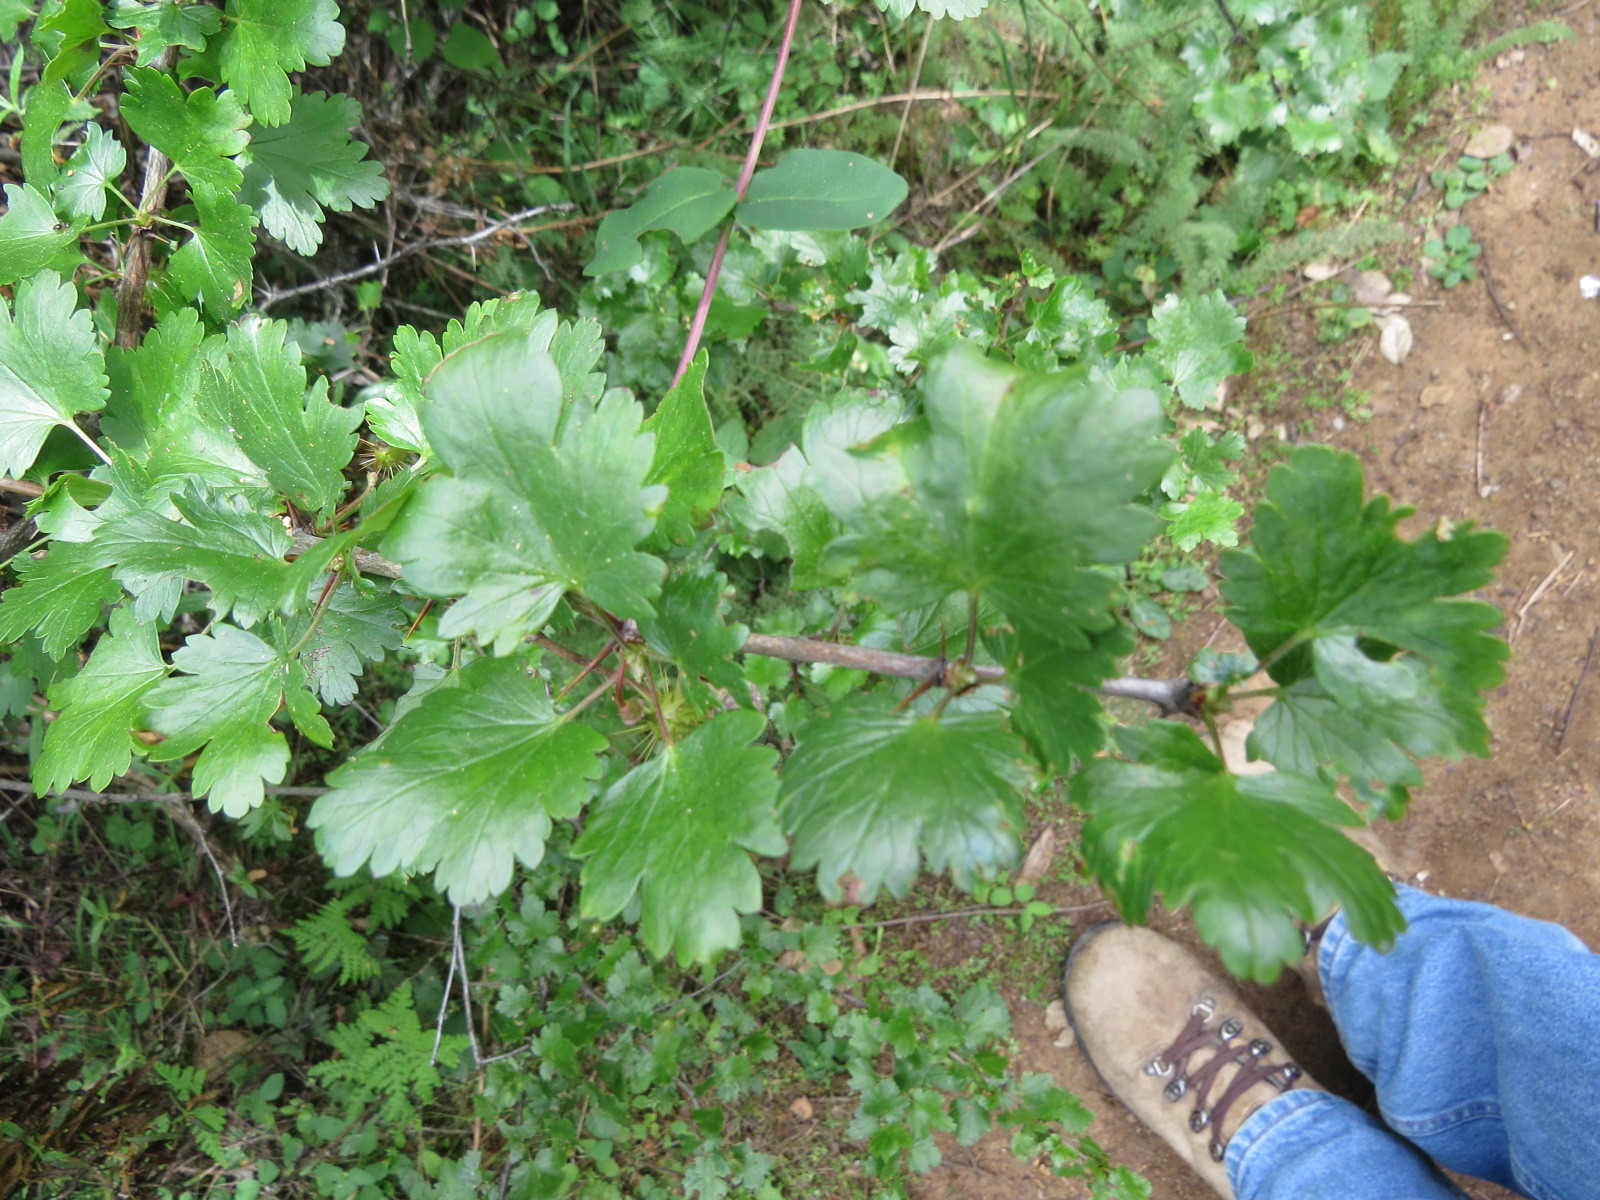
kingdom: Plantae
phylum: Tracheophyta
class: Magnoliopsida
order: Saxifragales
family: Grossulariaceae
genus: Ribes
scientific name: Ribes californicum
